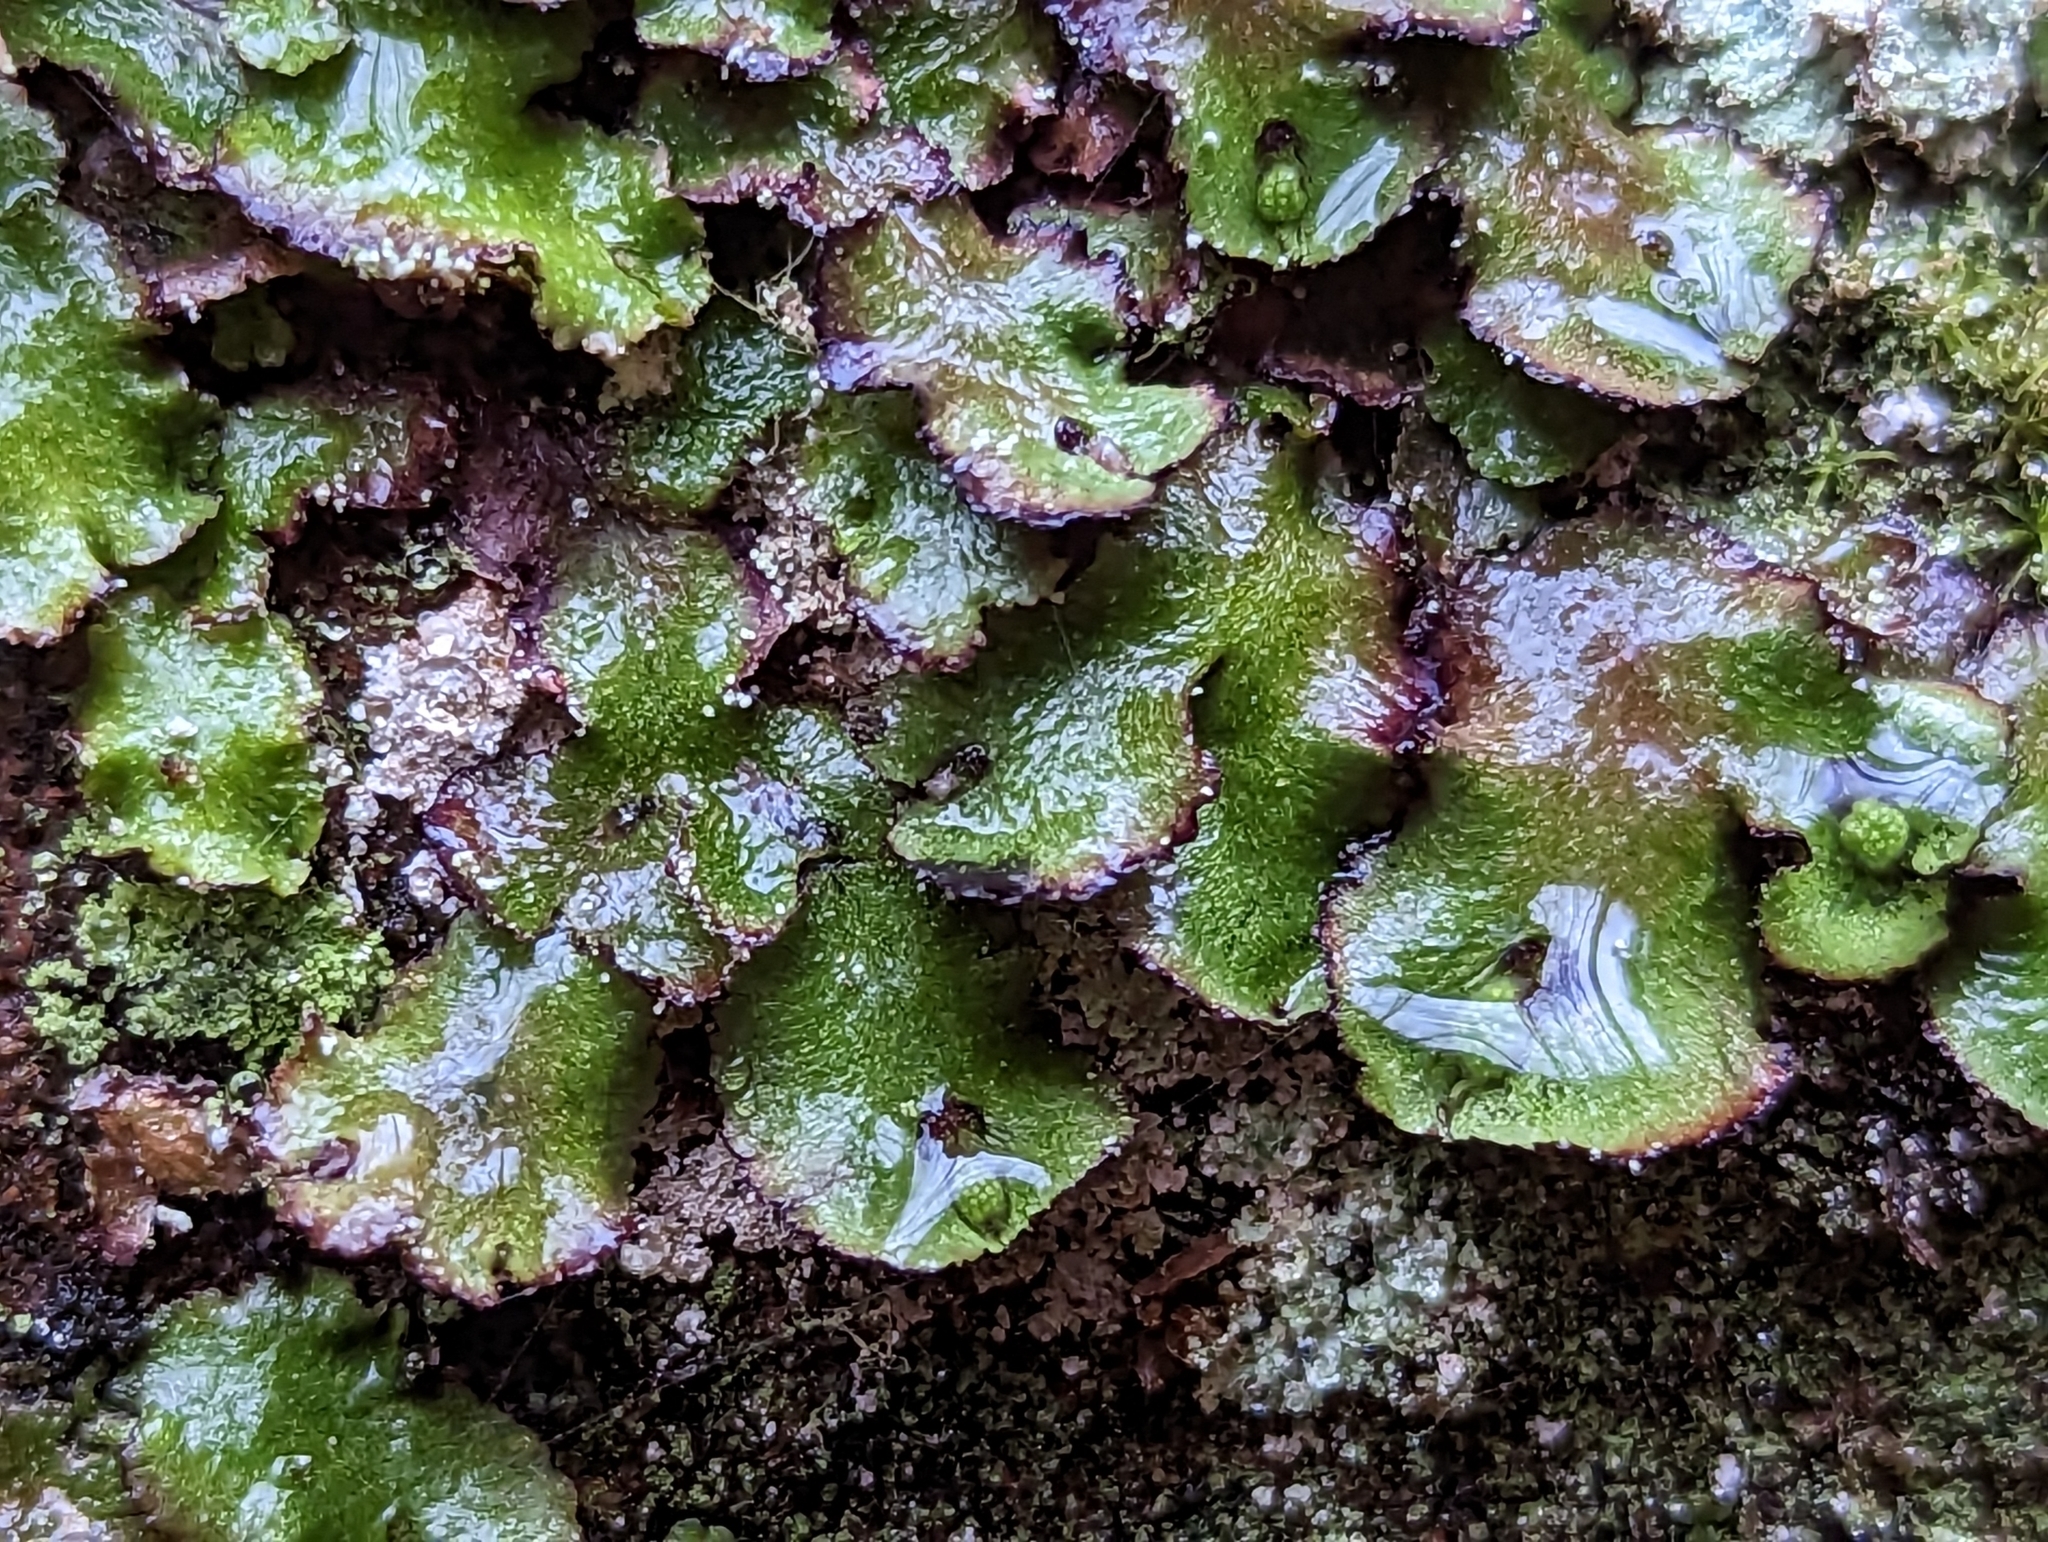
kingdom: Plantae
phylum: Marchantiophyta
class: Marchantiopsida
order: Marchantiales
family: Aytoniaceae
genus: Reboulia
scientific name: Reboulia hemisphaerica
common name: Purple-margined liverwort
